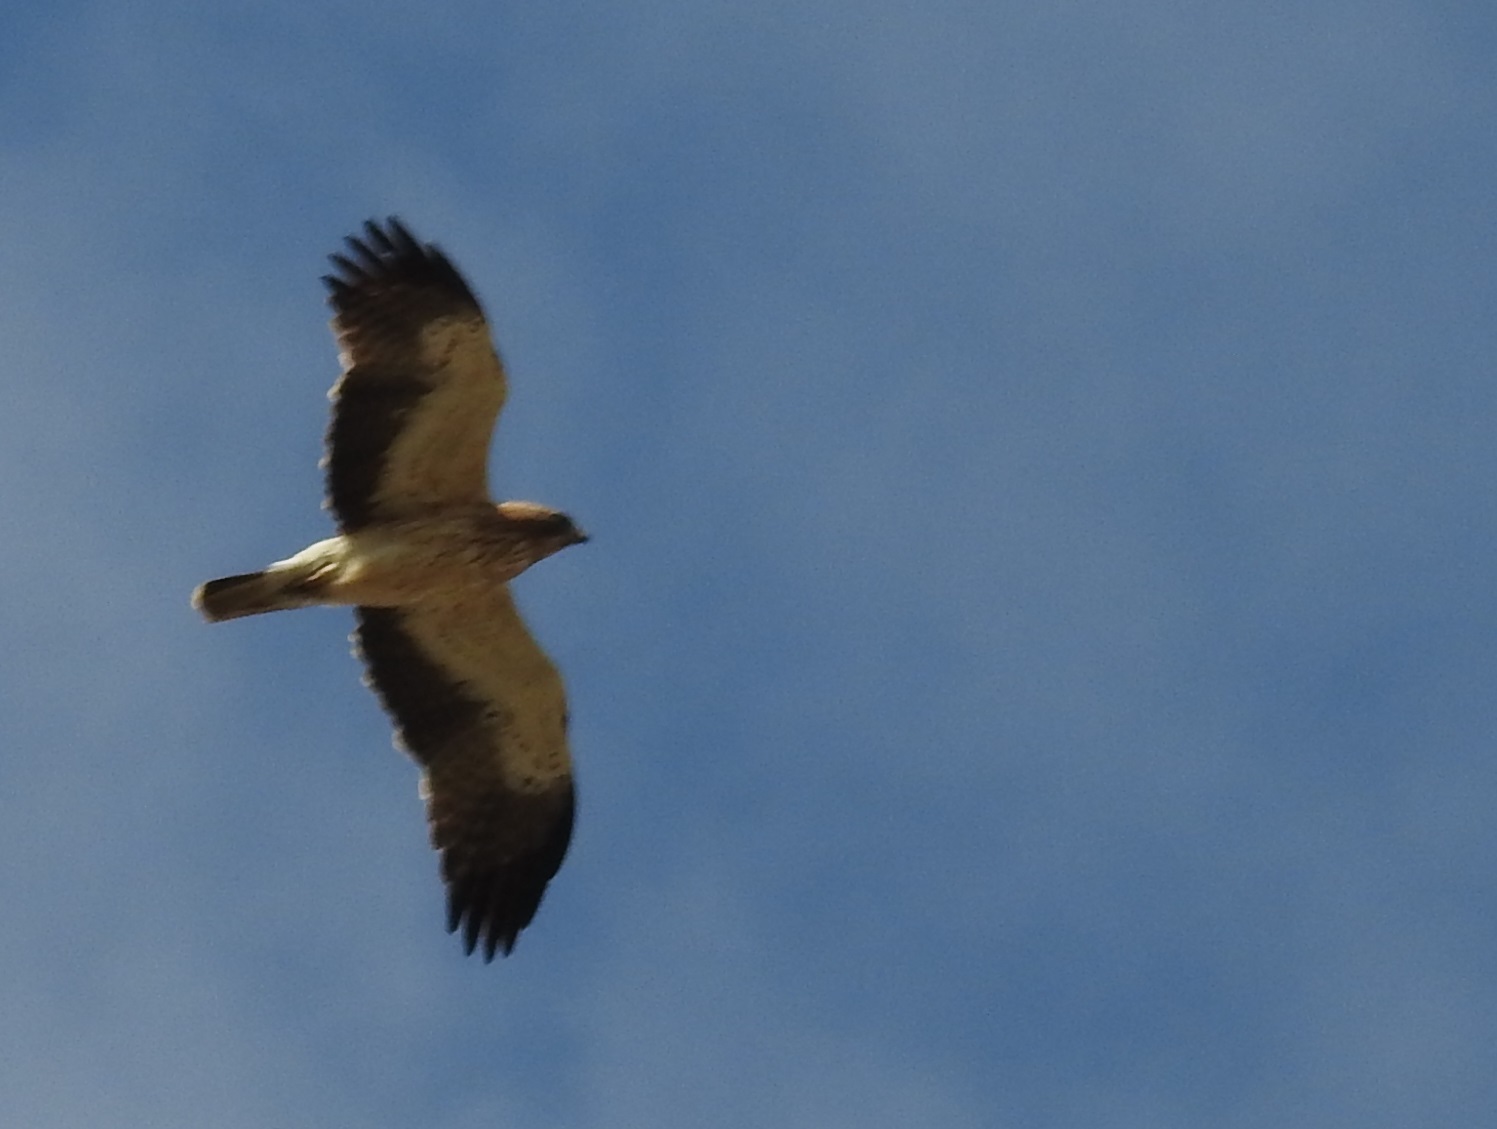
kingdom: Animalia
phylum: Chordata
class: Aves
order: Accipitriformes
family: Accipitridae
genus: Hieraaetus
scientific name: Hieraaetus pennatus
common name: Booted eagle
